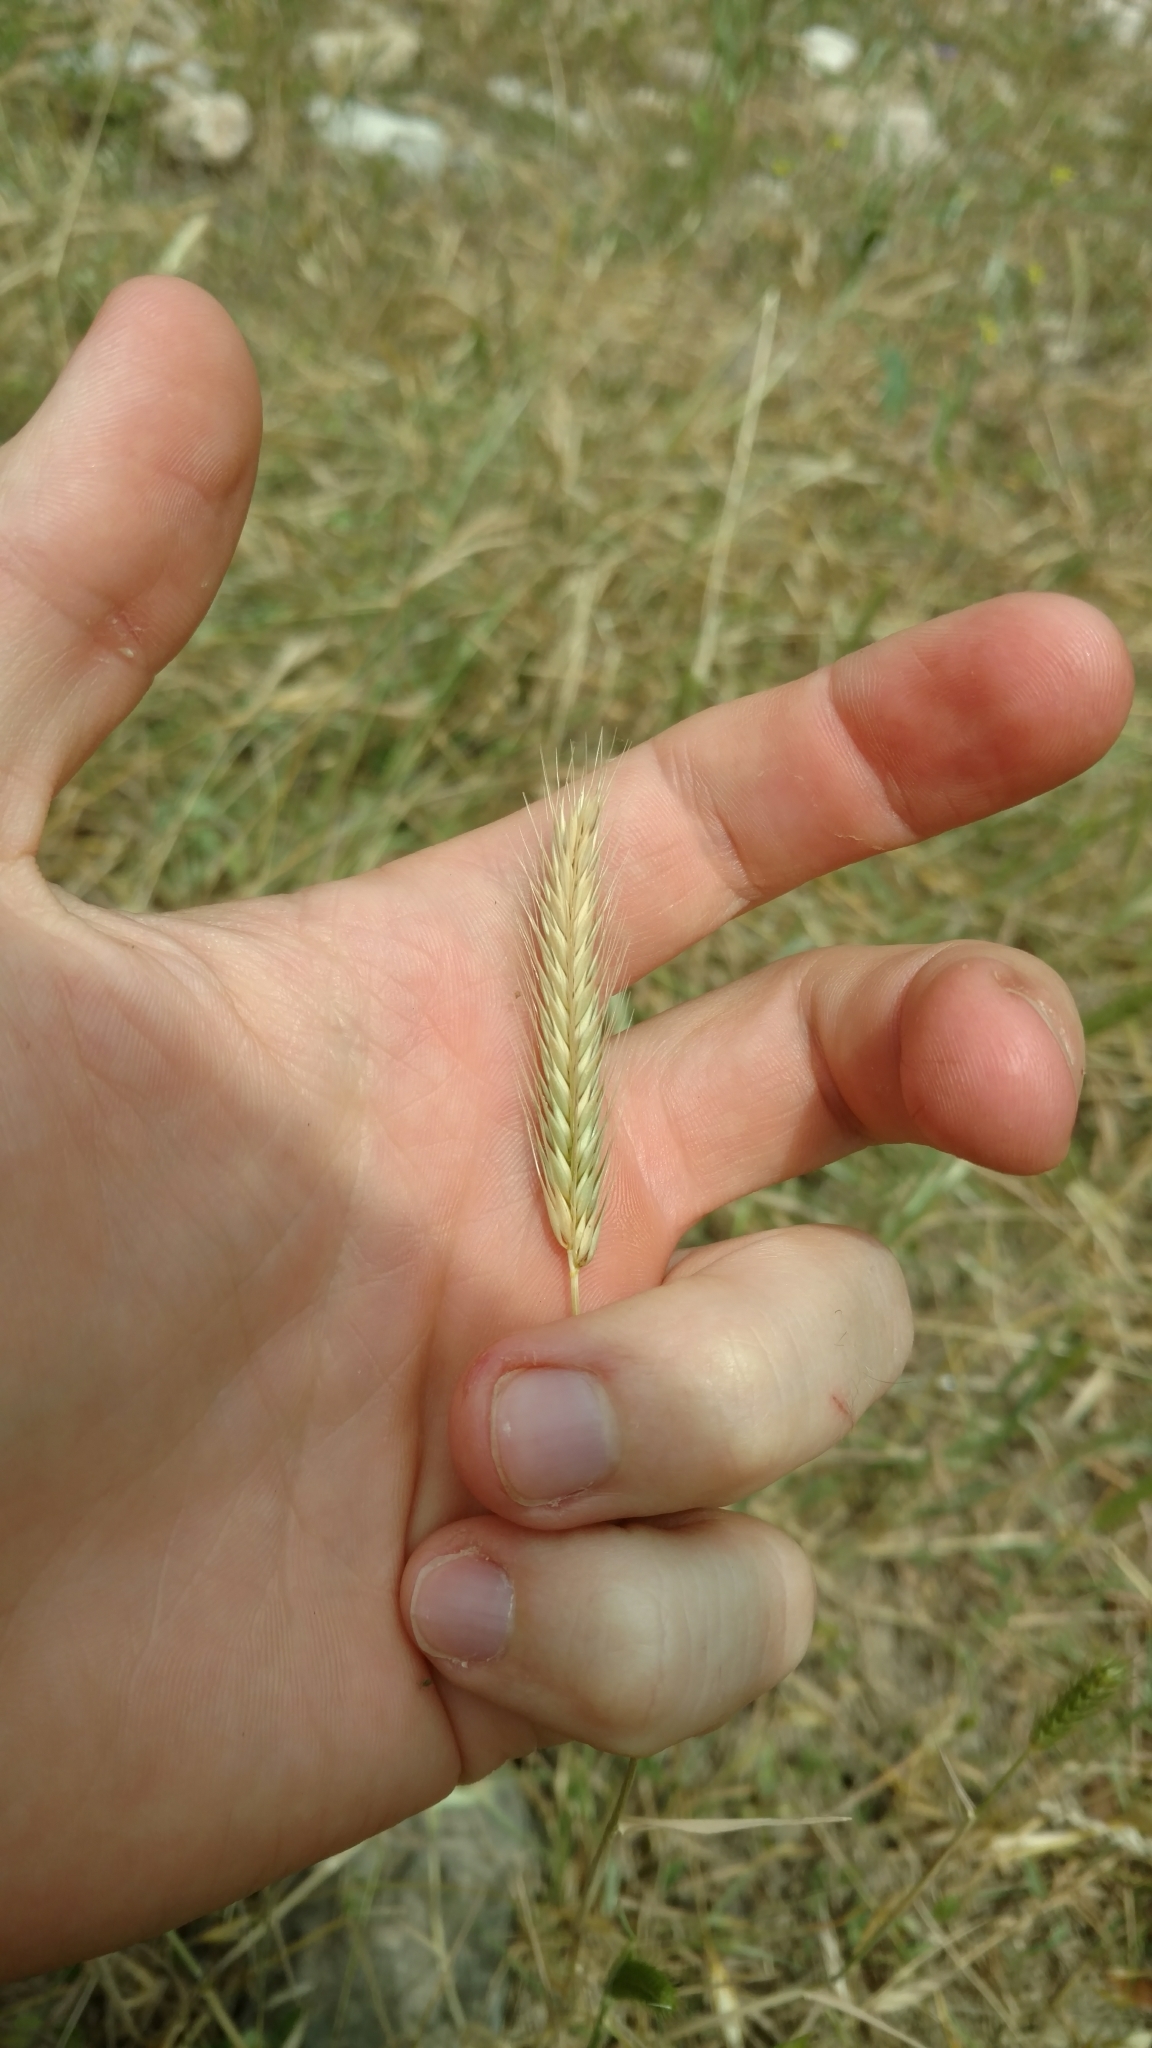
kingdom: Plantae
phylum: Tracheophyta
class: Liliopsida
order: Poales
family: Poaceae
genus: Hordeum
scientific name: Hordeum pusillum
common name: Little barley
